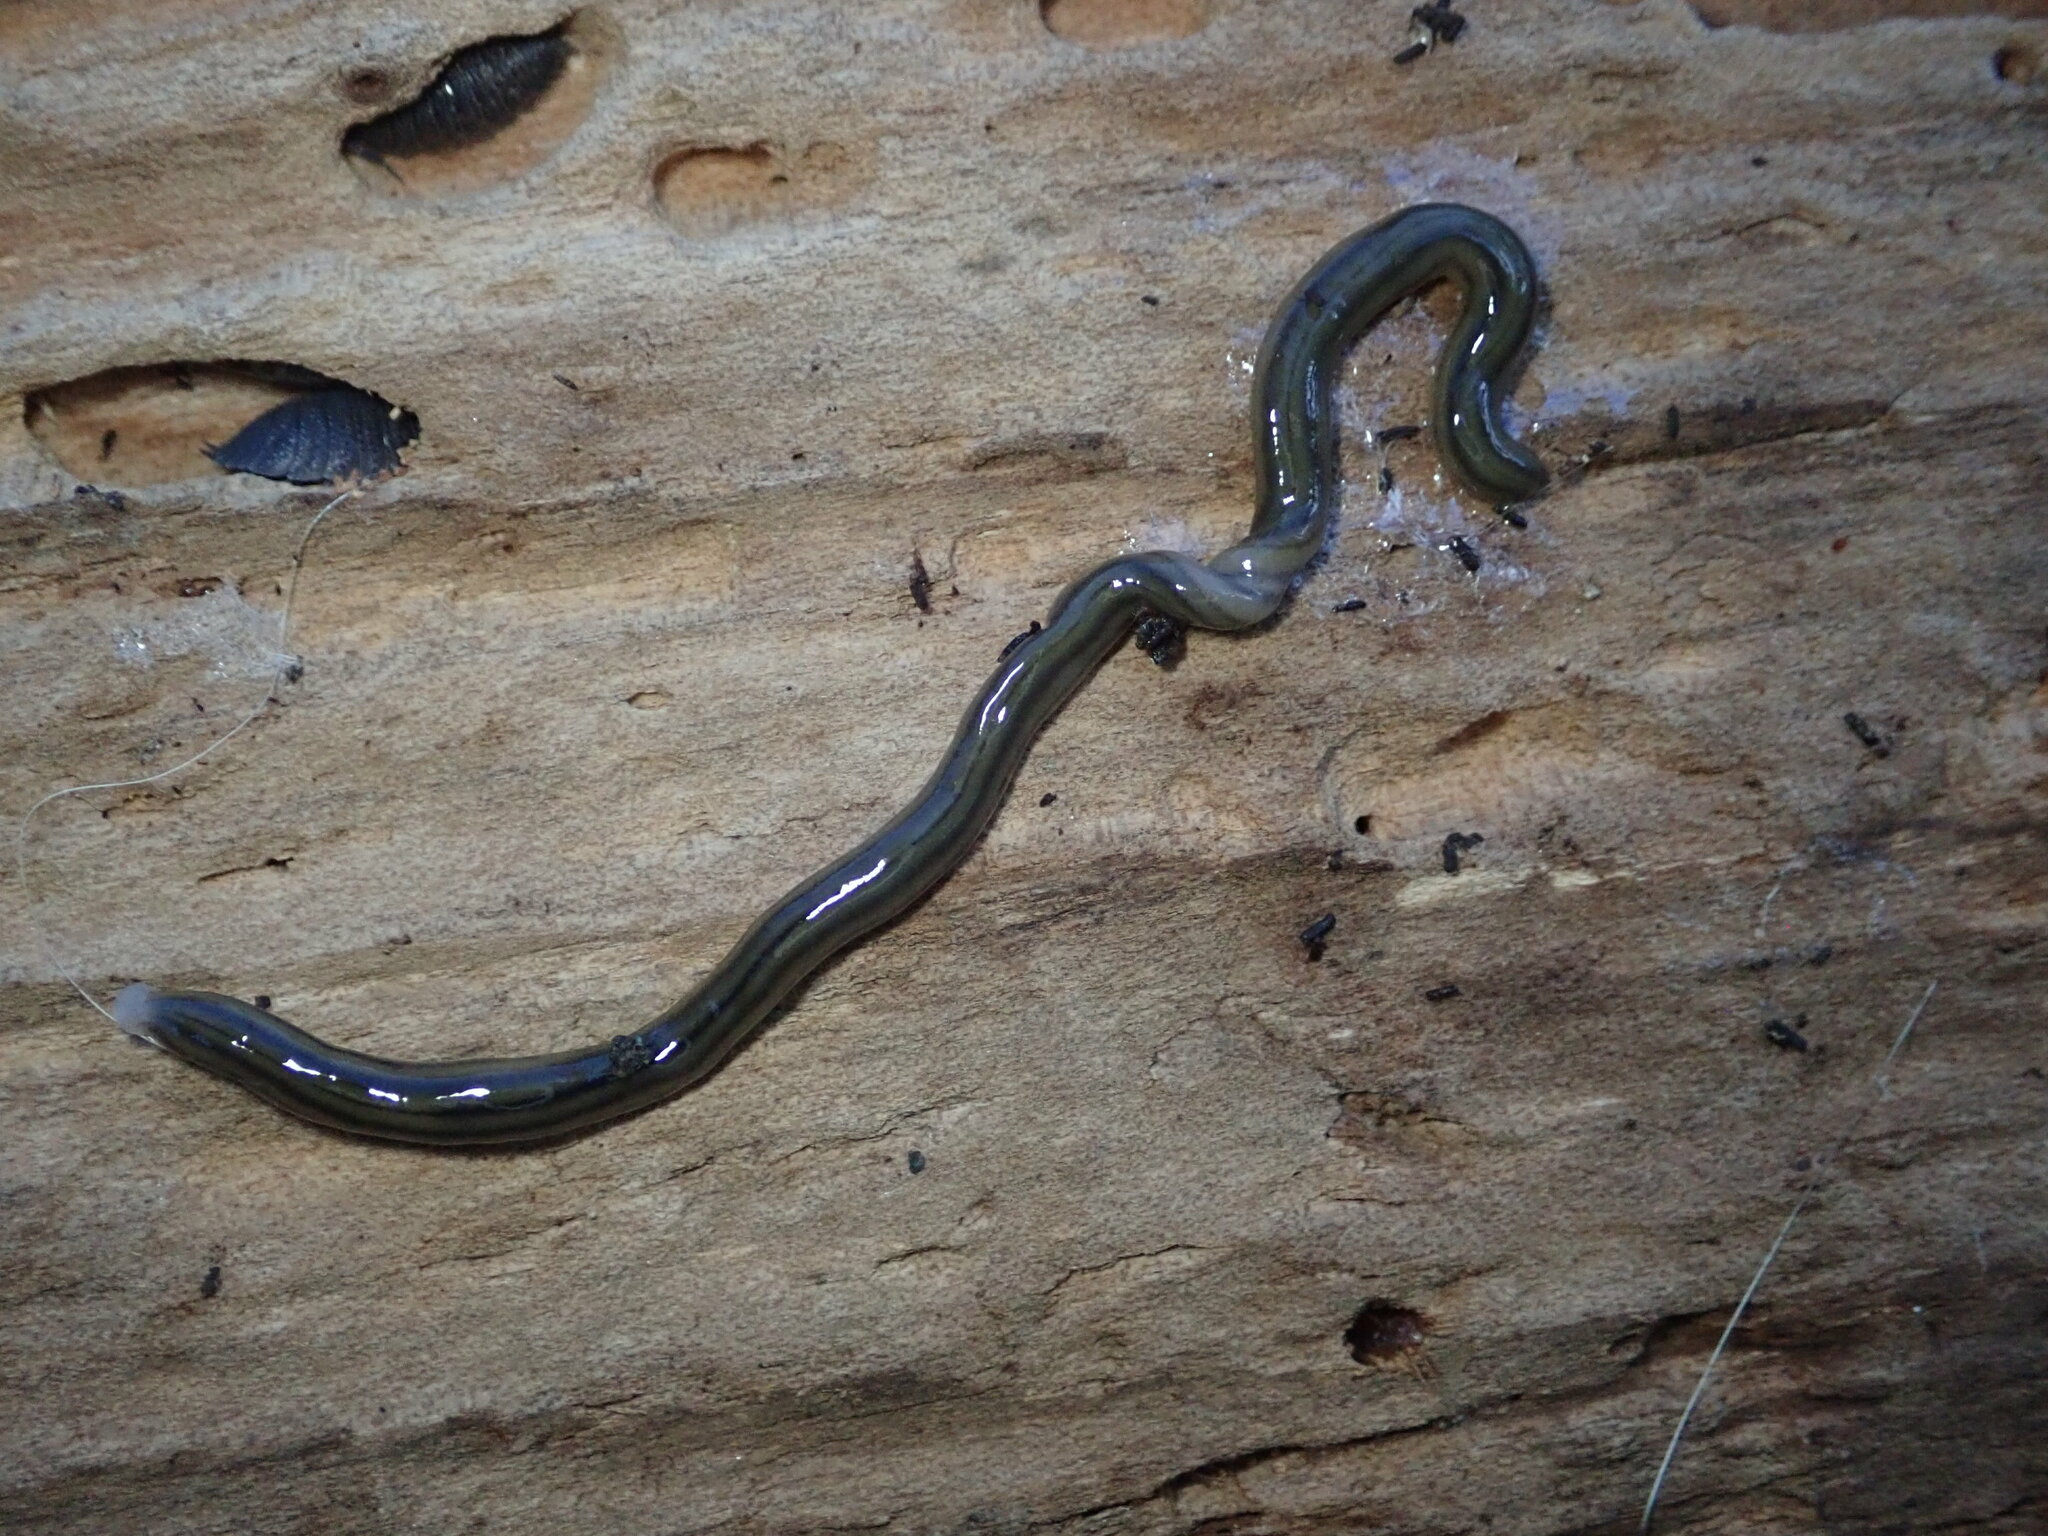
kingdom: Animalia
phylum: Platyhelminthes
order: Tricladida
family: Geoplanidae
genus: Bipalium
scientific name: Bipalium kewense
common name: Hammerhead flatworm
